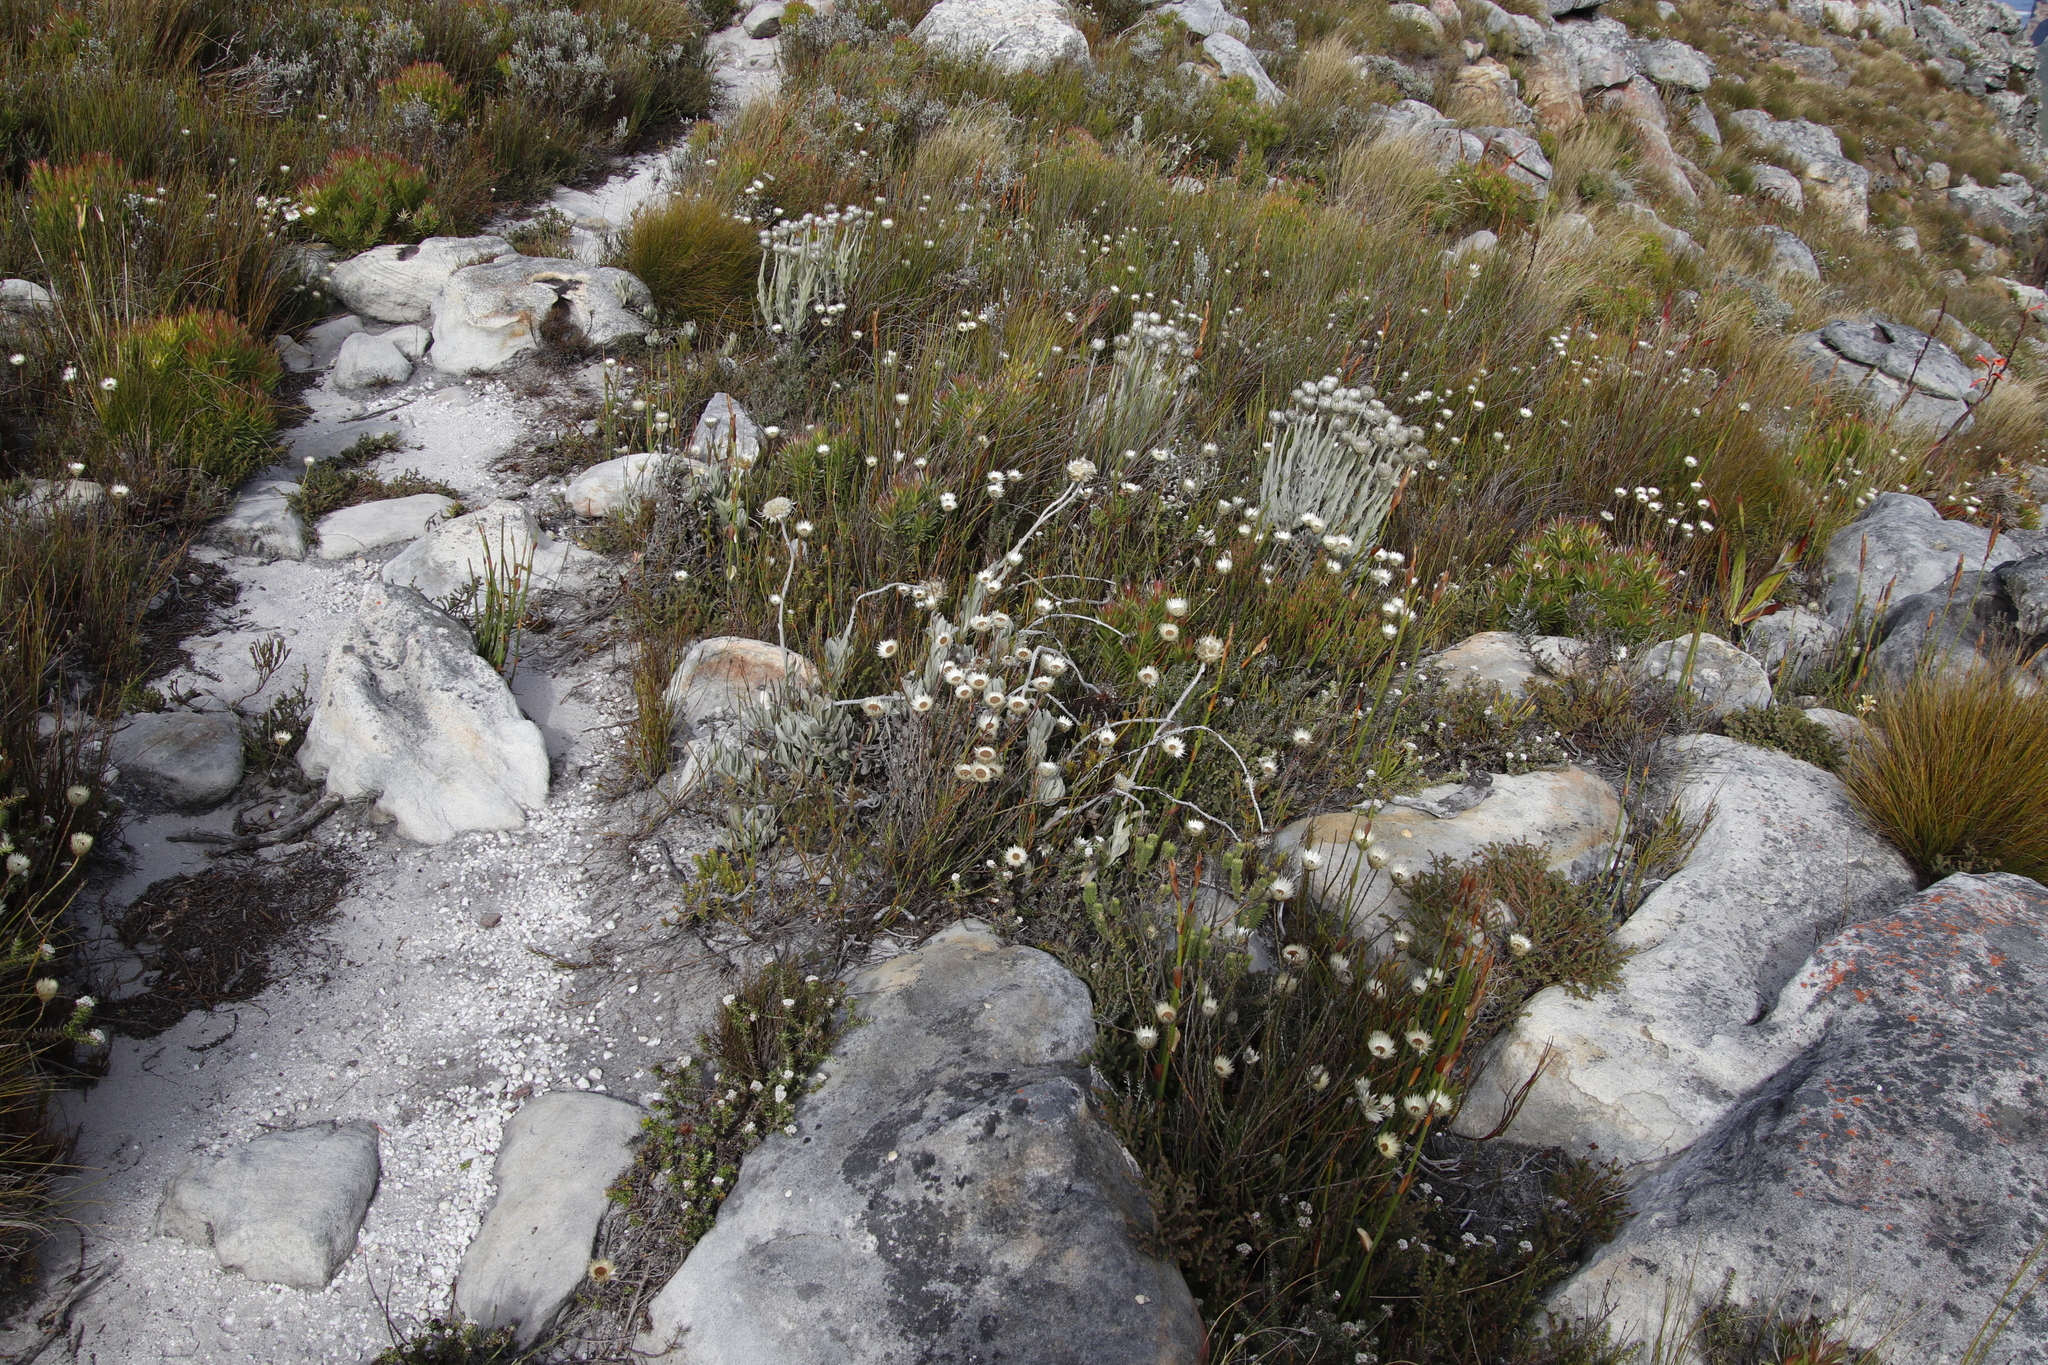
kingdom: Plantae
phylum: Tracheophyta
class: Magnoliopsida
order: Asterales
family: Asteraceae
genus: Syncarpha
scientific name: Syncarpha vestita
